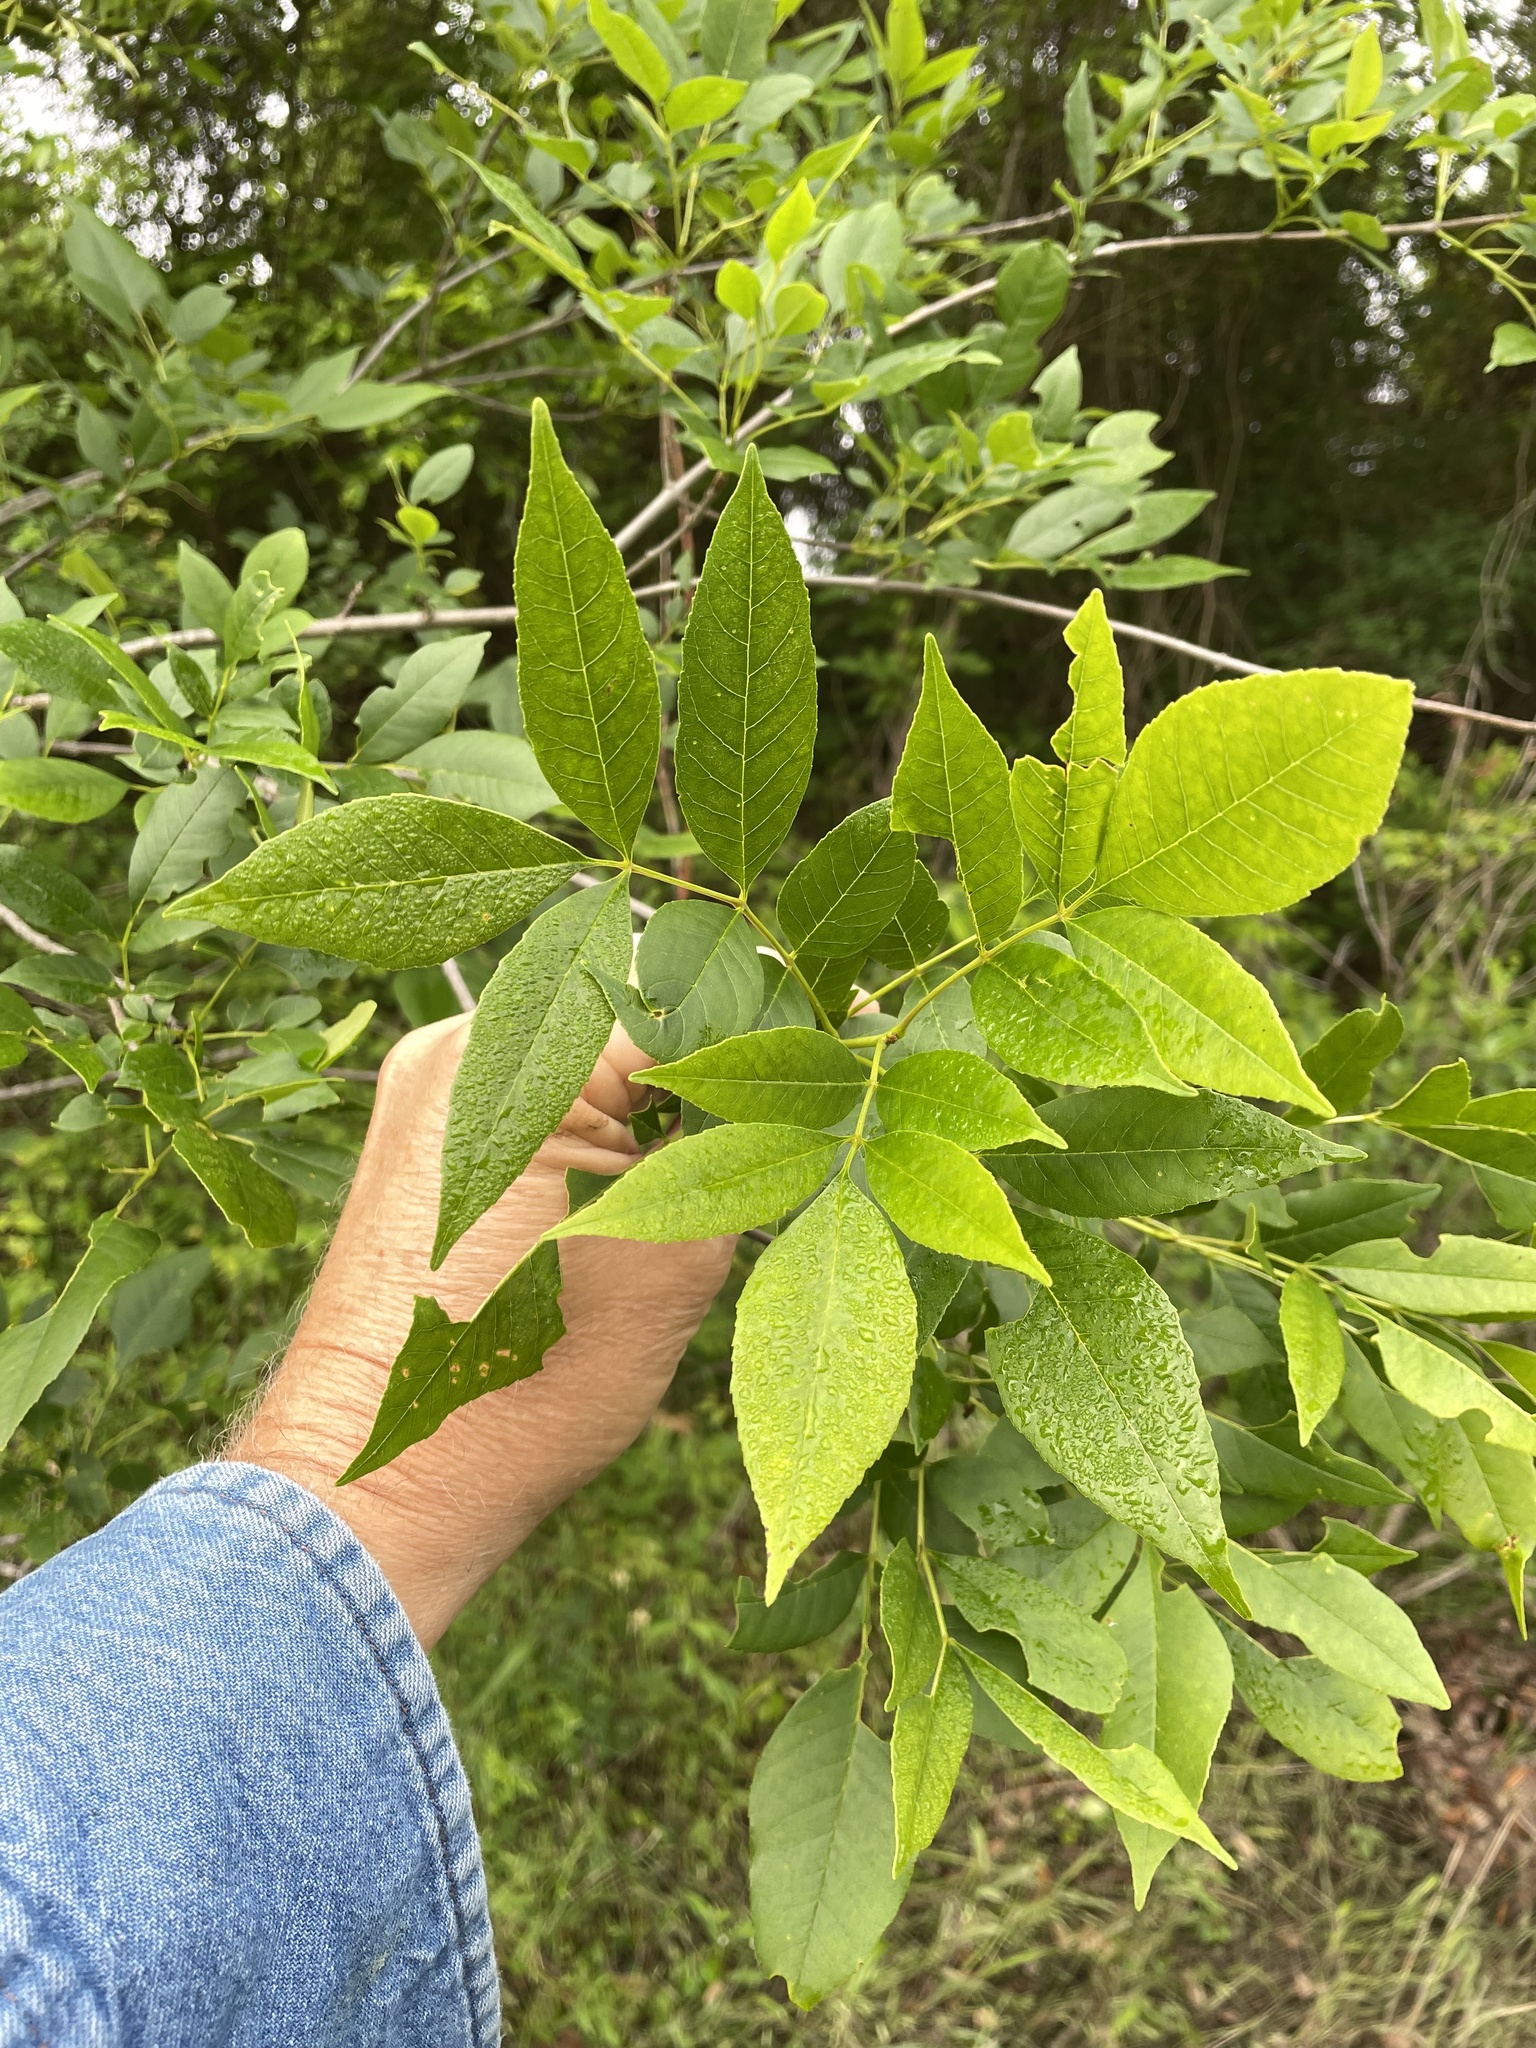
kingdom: Plantae
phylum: Tracheophyta
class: Magnoliopsida
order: Lamiales
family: Oleaceae
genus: Fraxinus
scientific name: Fraxinus pennsylvanica
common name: Green ash
